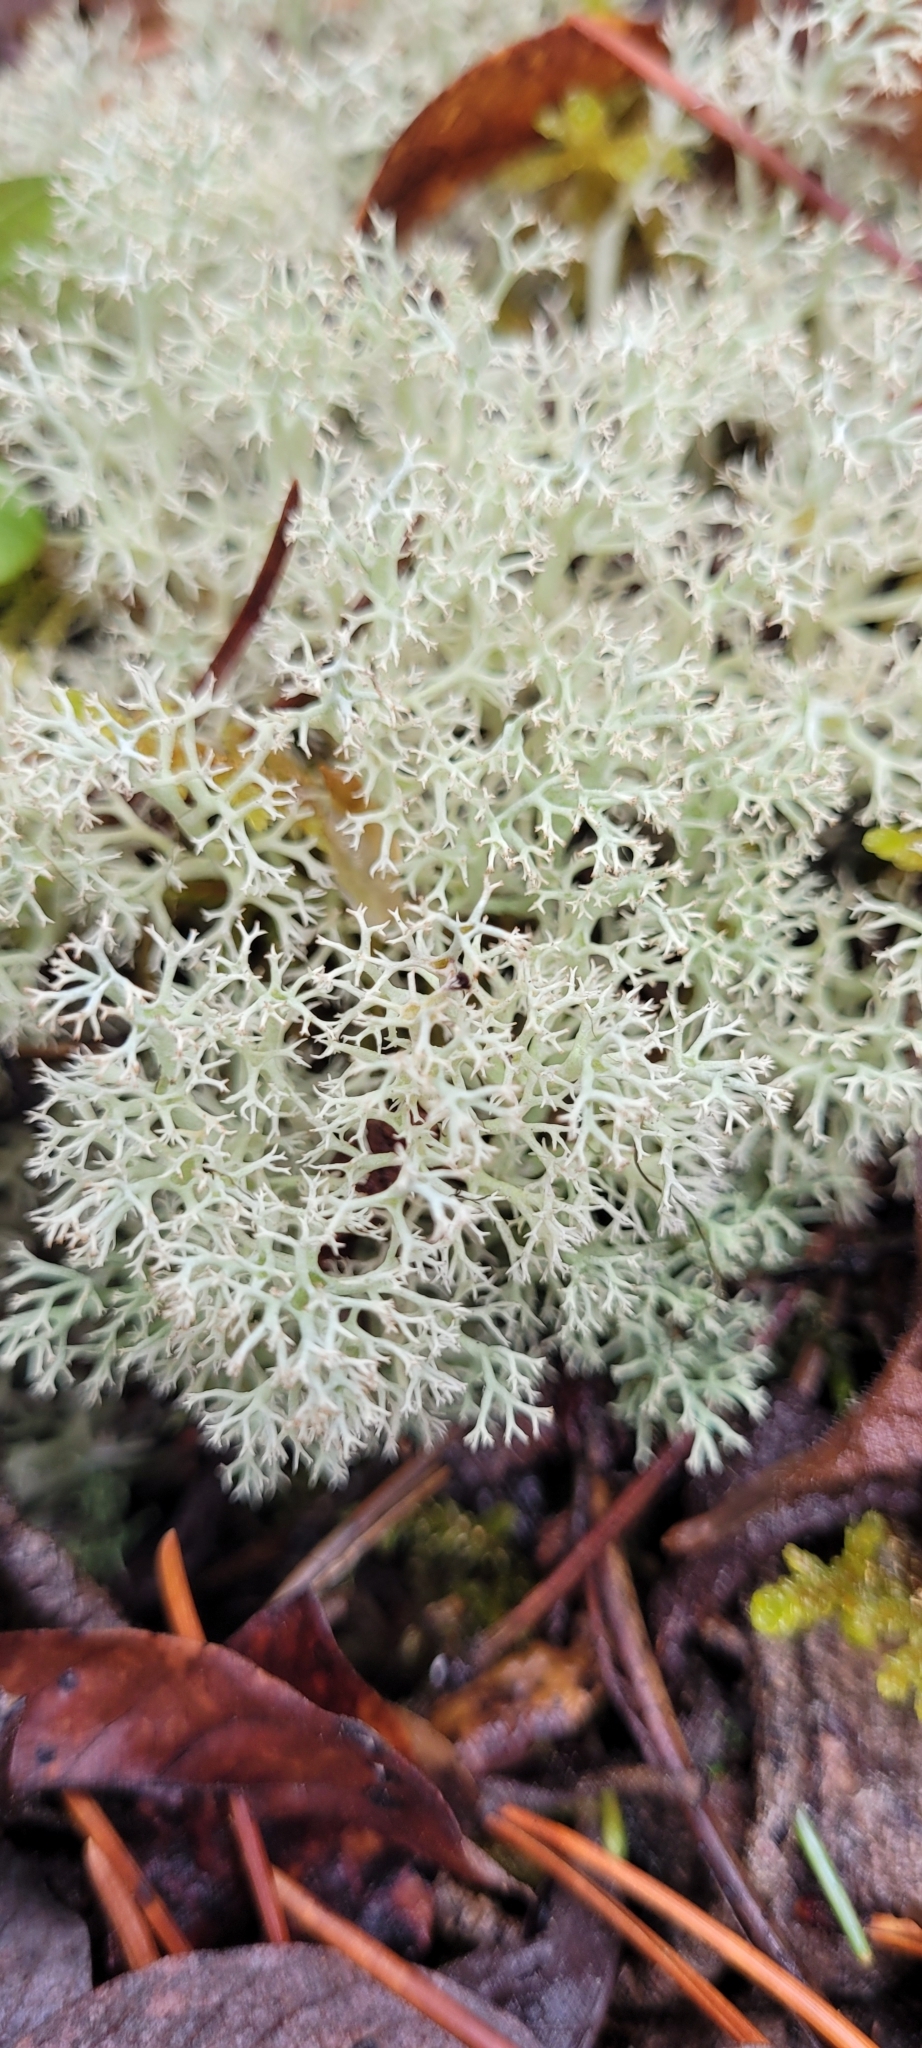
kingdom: Fungi
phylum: Ascomycota
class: Lecanoromycetes
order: Lecanorales
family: Cladoniaceae
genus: Cladonia
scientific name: Cladonia arbuscula
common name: Reindeer lichen
